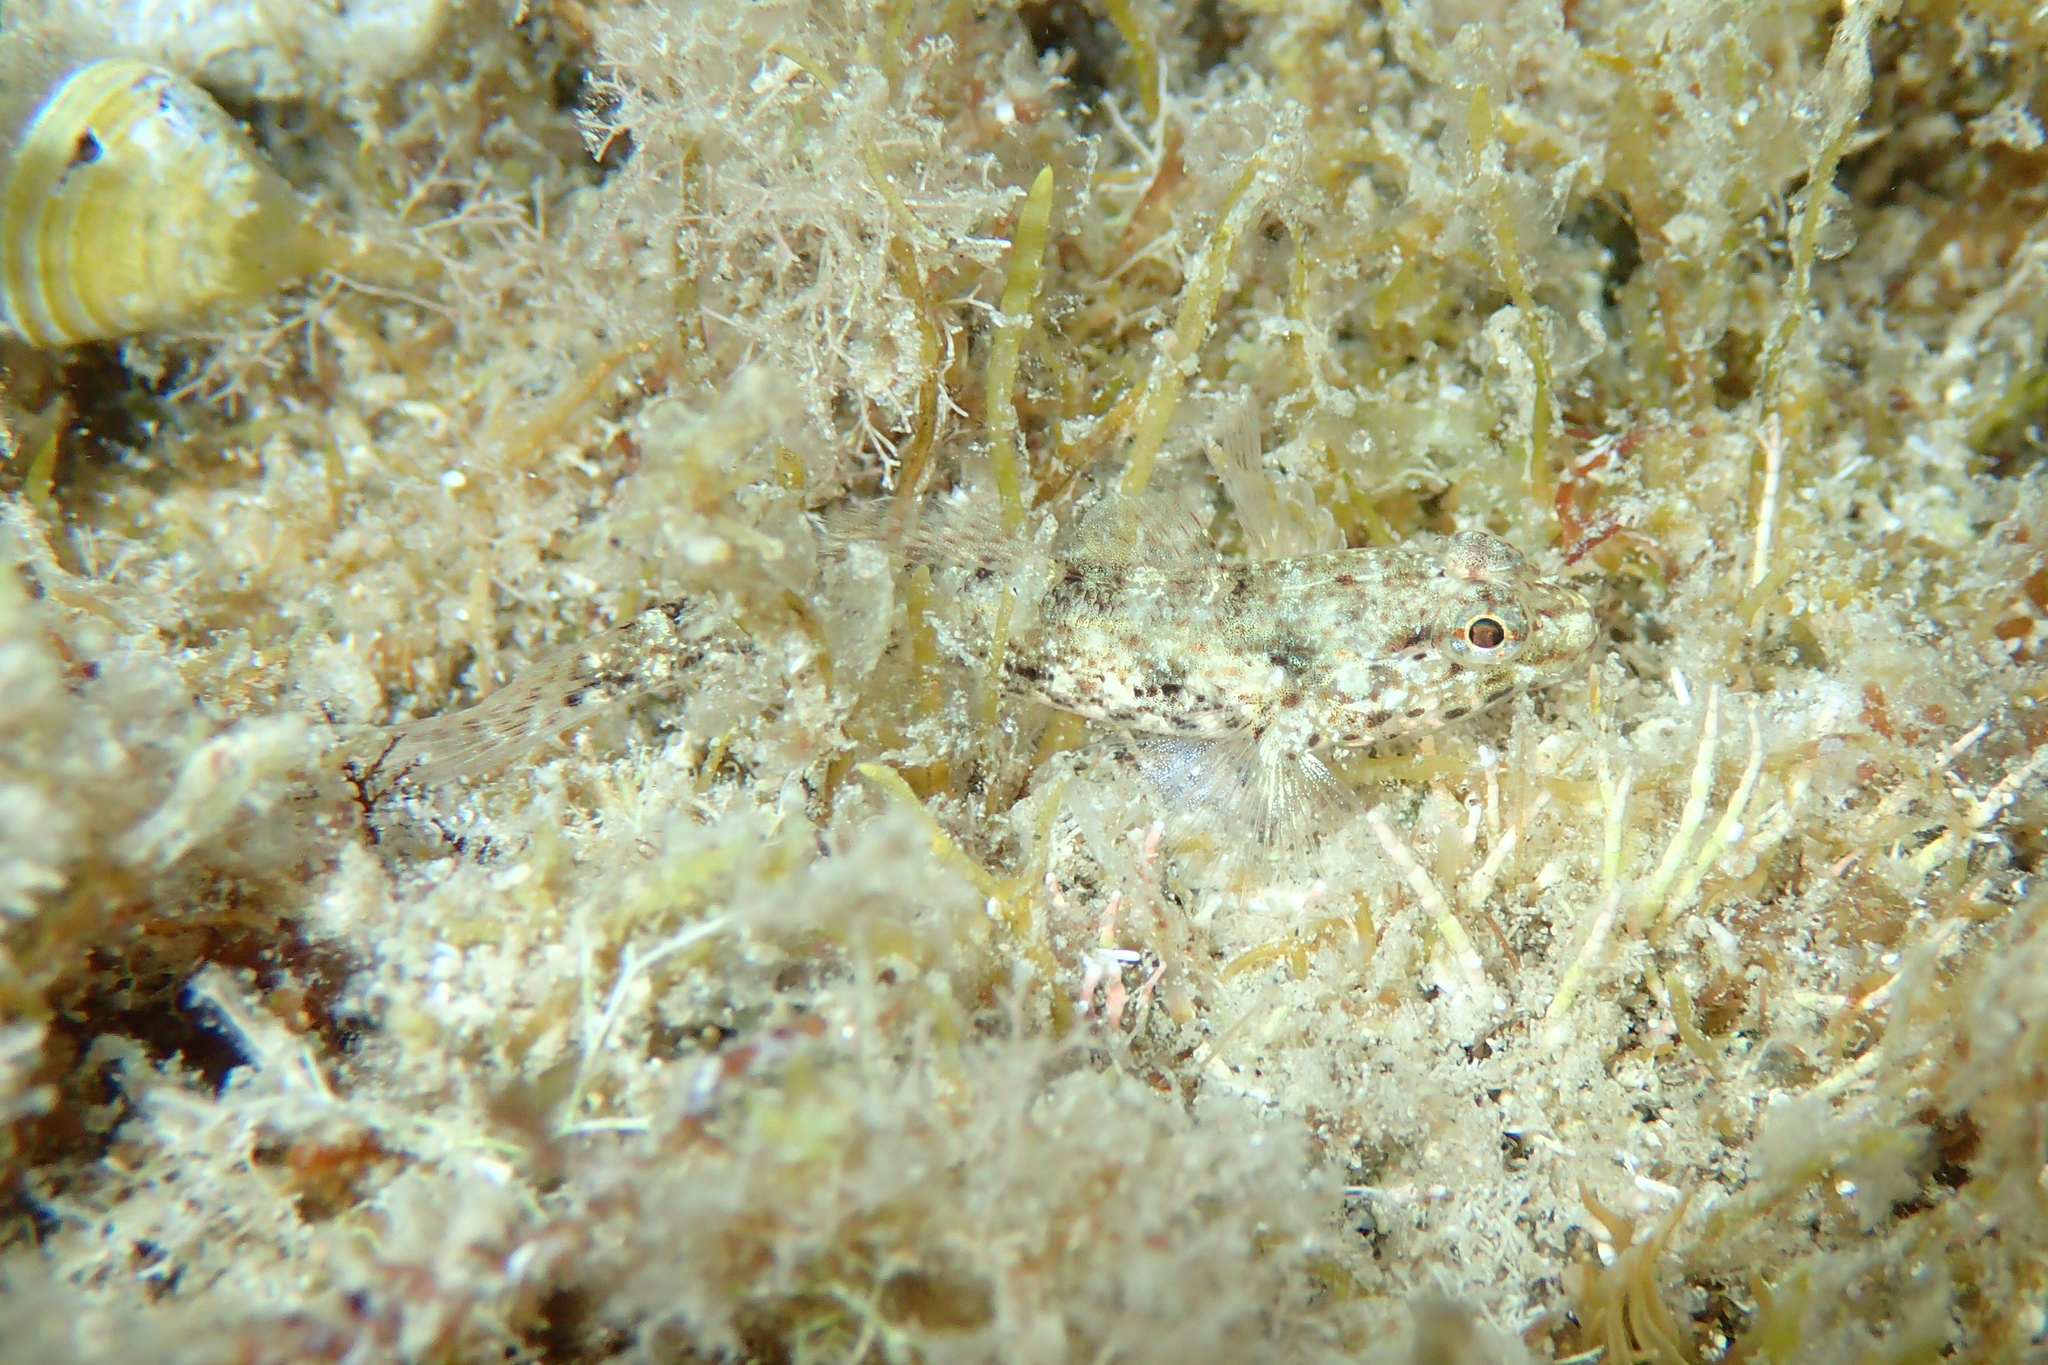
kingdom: Animalia
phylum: Chordata
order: Perciformes
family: Gobiidae
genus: Gobius
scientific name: Gobius incognitus
